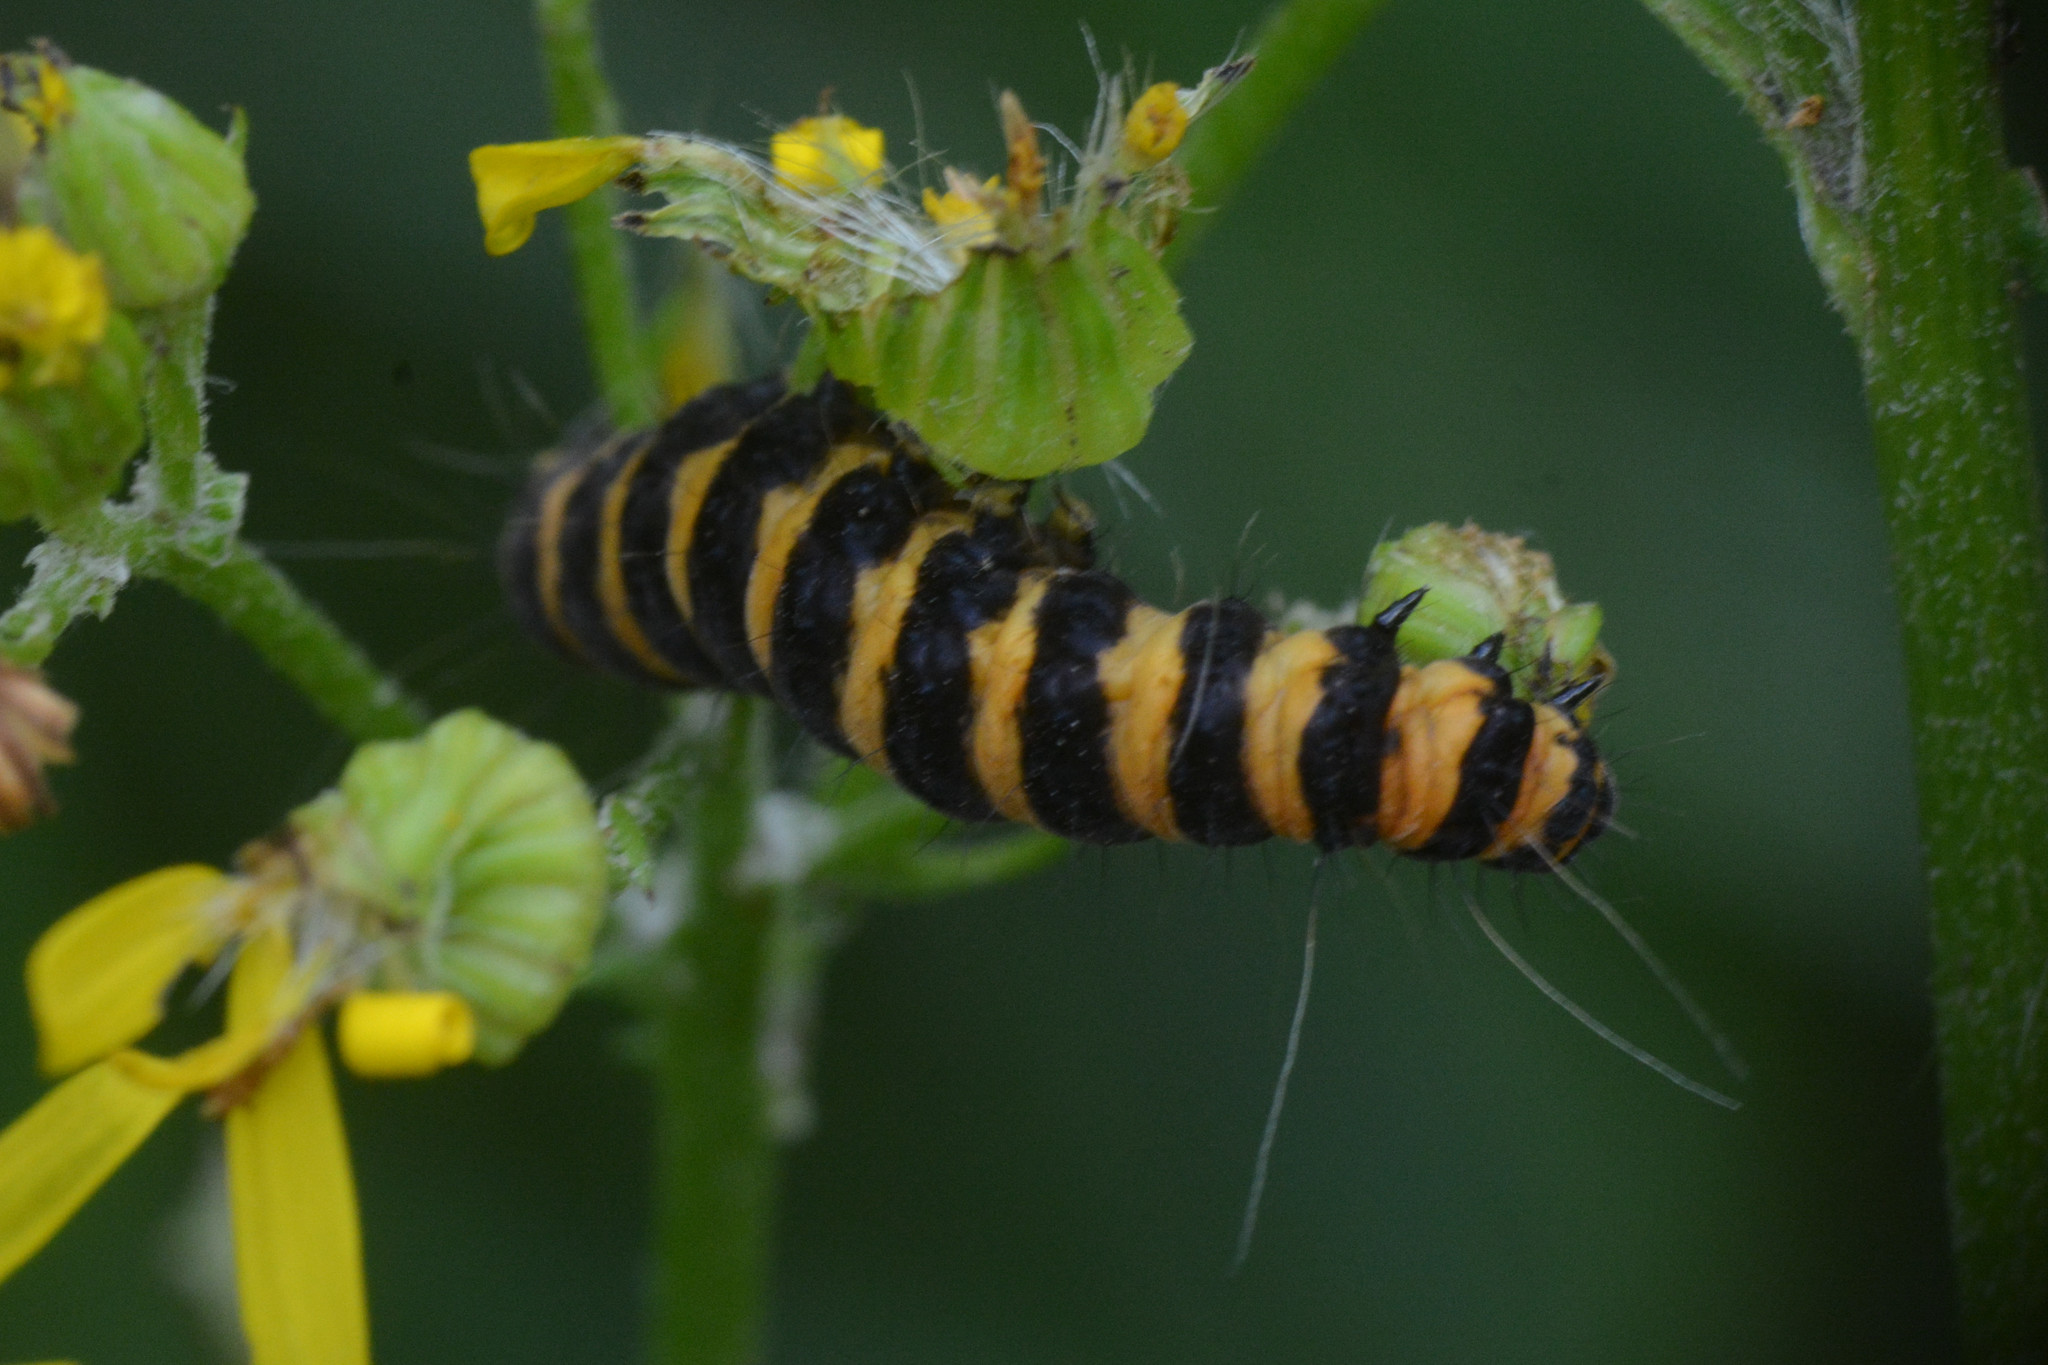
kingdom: Animalia
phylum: Arthropoda
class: Insecta
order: Lepidoptera
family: Erebidae
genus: Tyria
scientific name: Tyria jacobaeae
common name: Cinnabar
